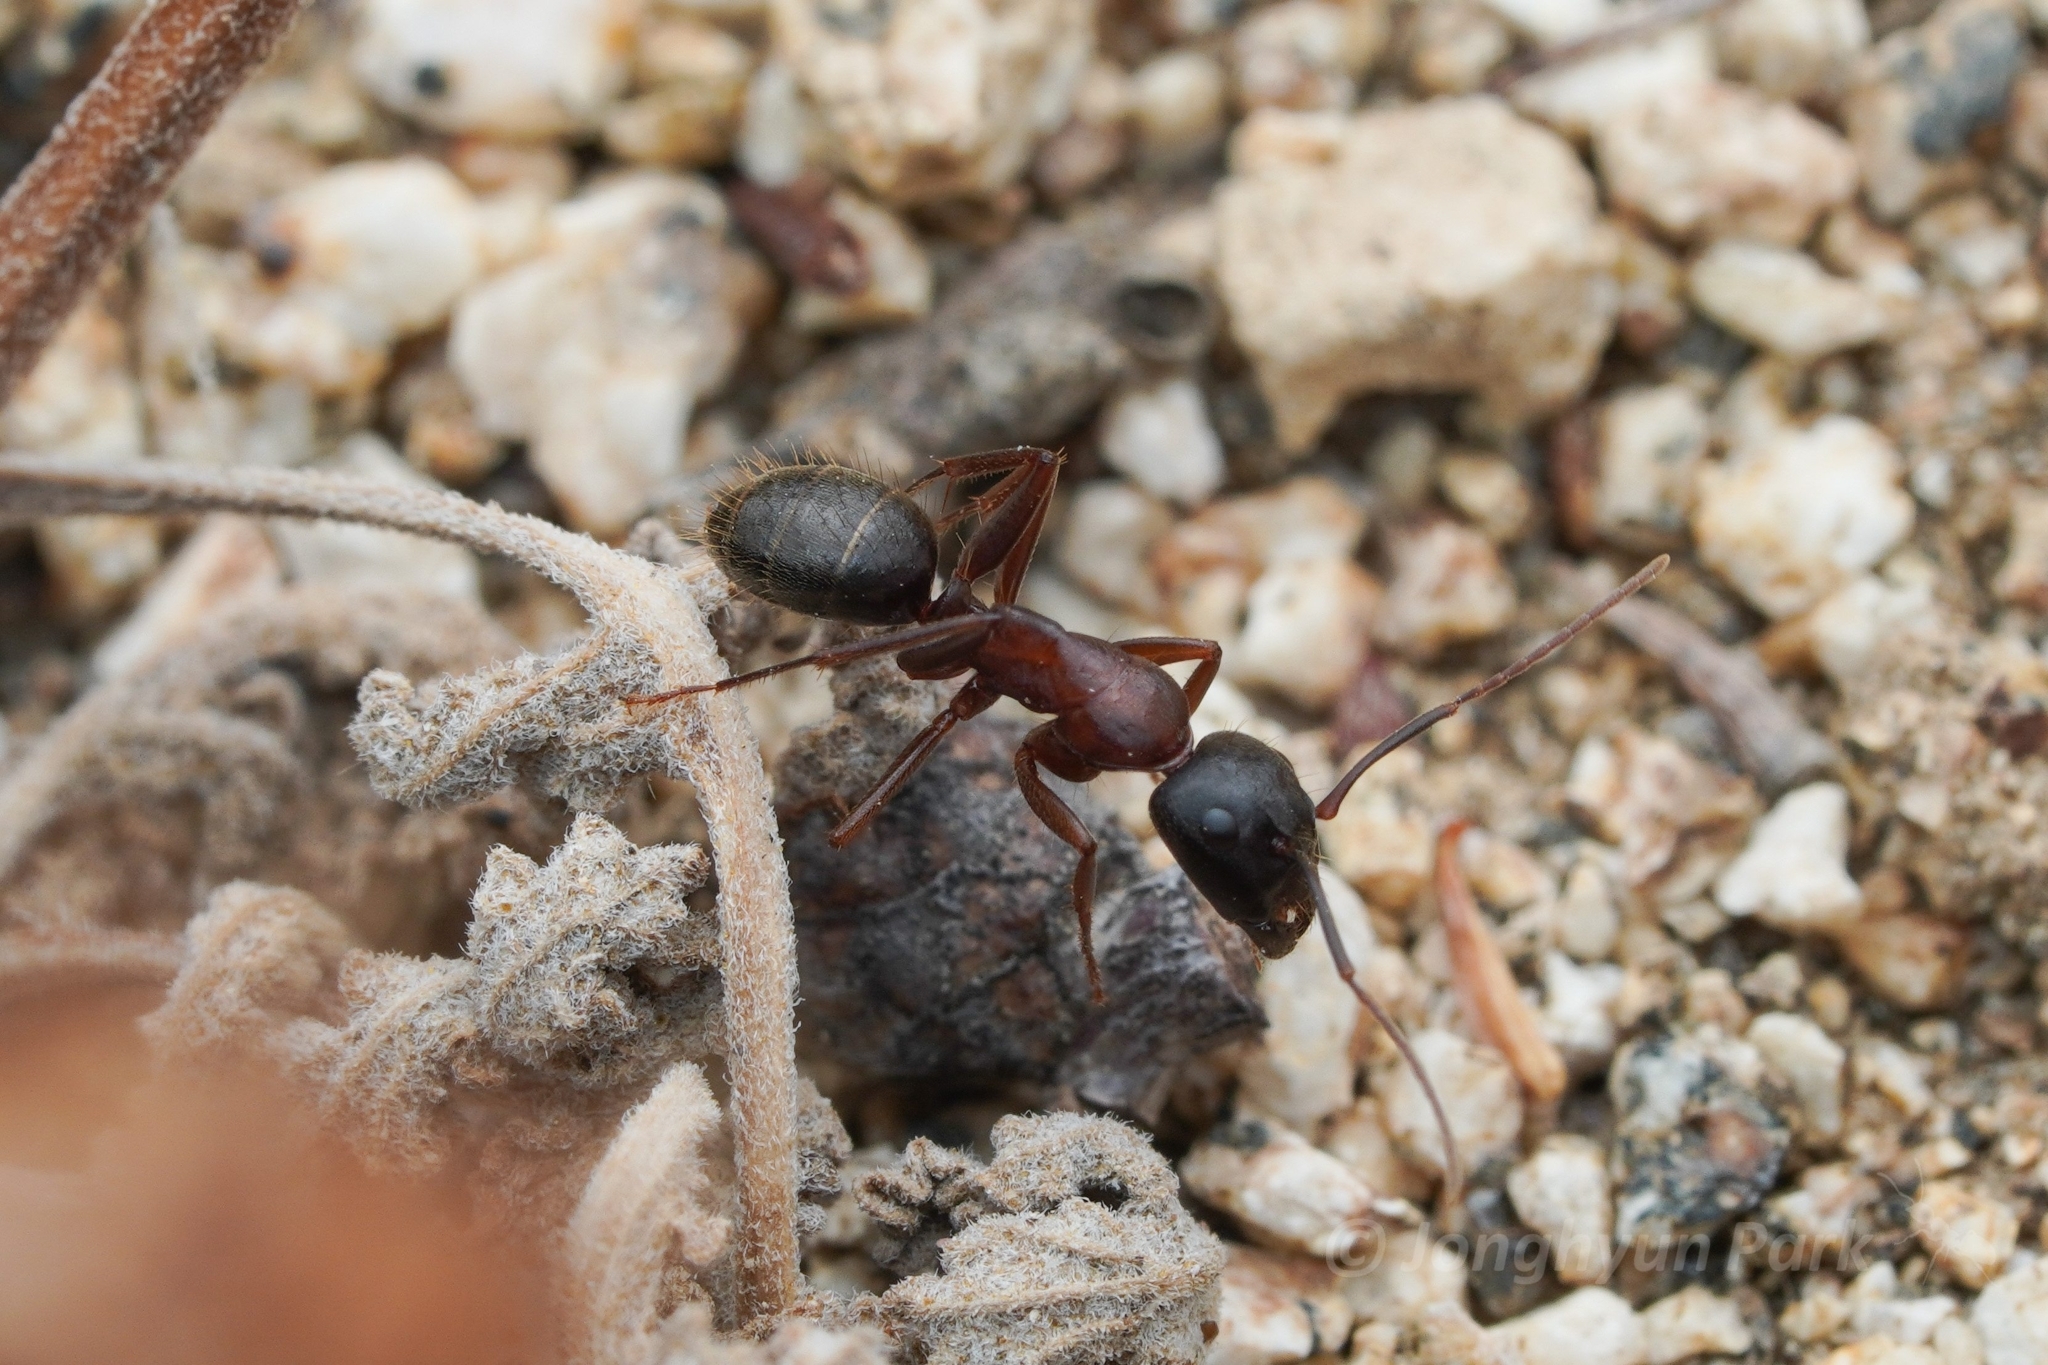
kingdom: Animalia
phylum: Arthropoda
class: Insecta
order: Hymenoptera
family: Formicidae
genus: Camponotus
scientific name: Camponotus dumetorum
